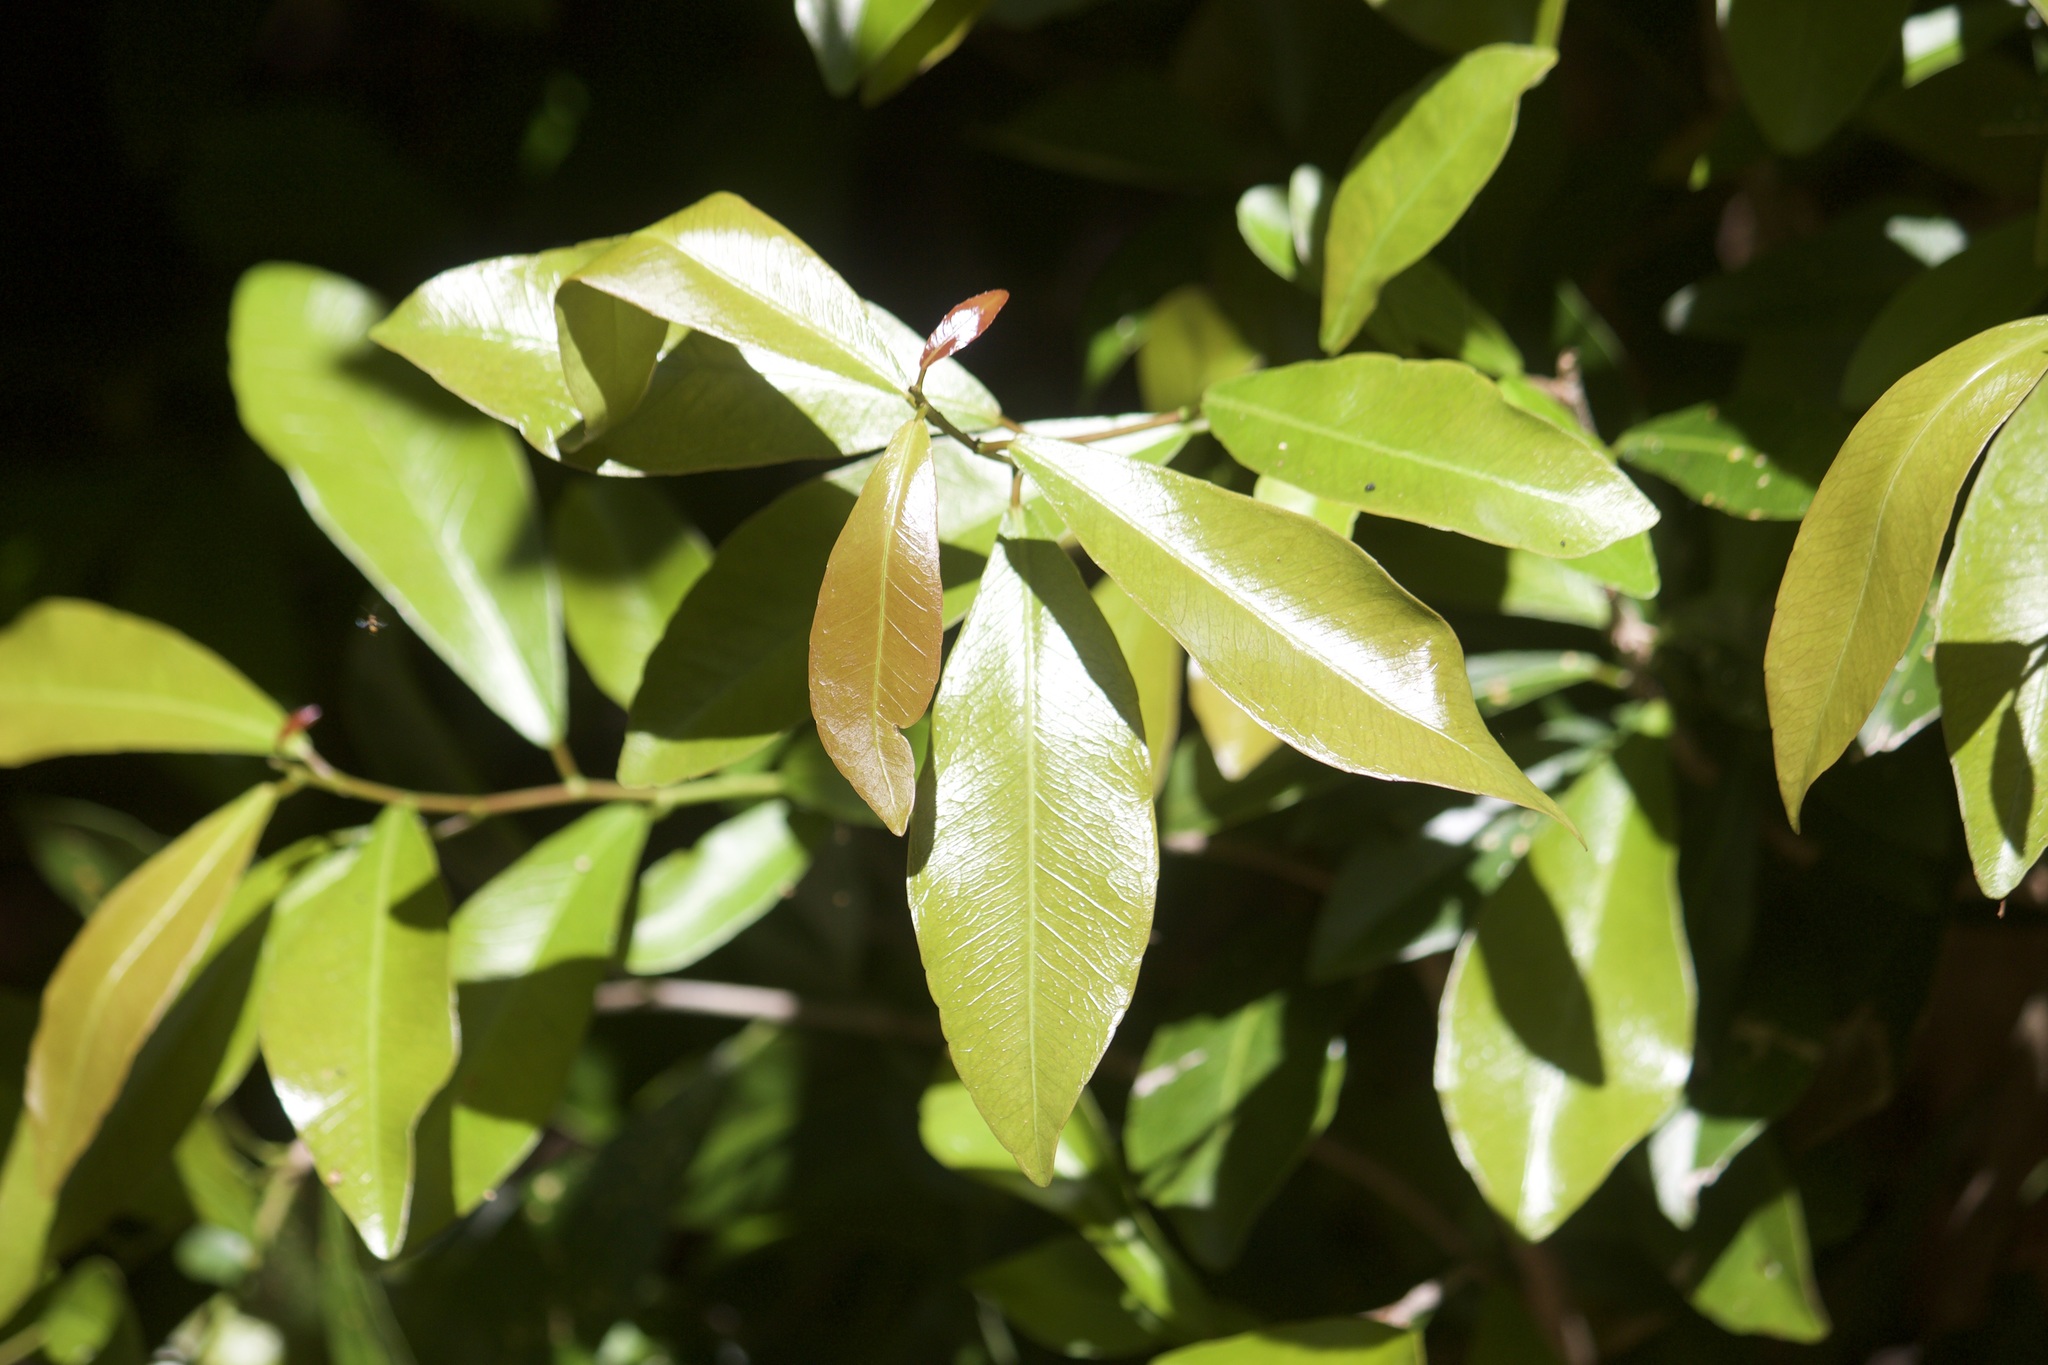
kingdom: Plantae
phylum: Tracheophyta
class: Magnoliopsida
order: Malpighiales
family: Euphorbiaceae
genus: Gymnanthes
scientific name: Gymnanthes lucida
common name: Oysterwood
